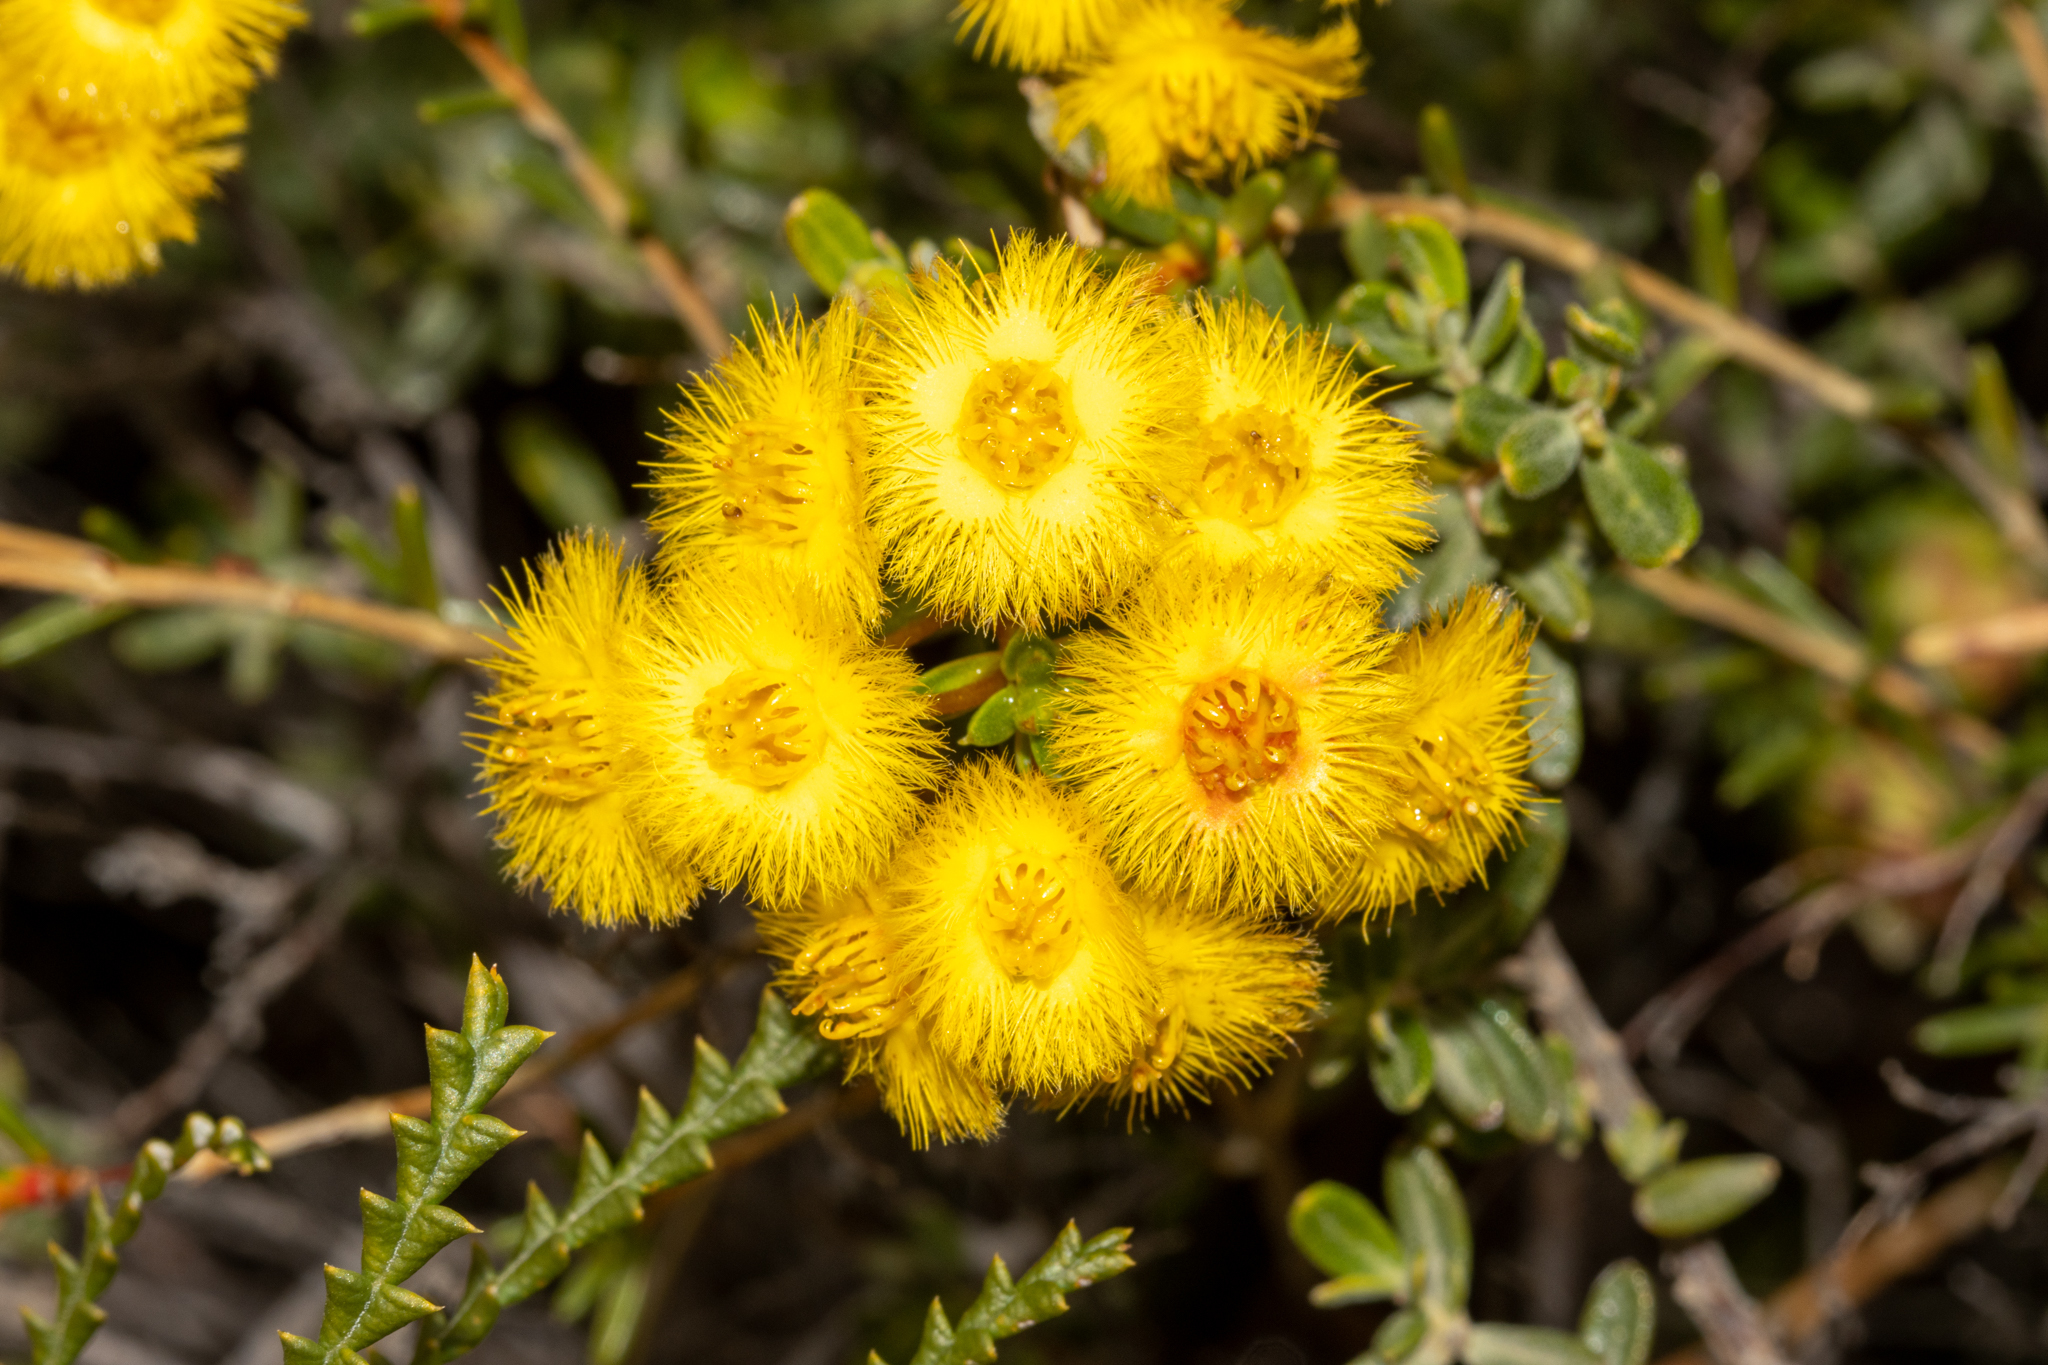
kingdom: Plantae
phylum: Tracheophyta
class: Magnoliopsida
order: Myrtales
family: Myrtaceae
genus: Verticordia
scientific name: Verticordia nobilis
